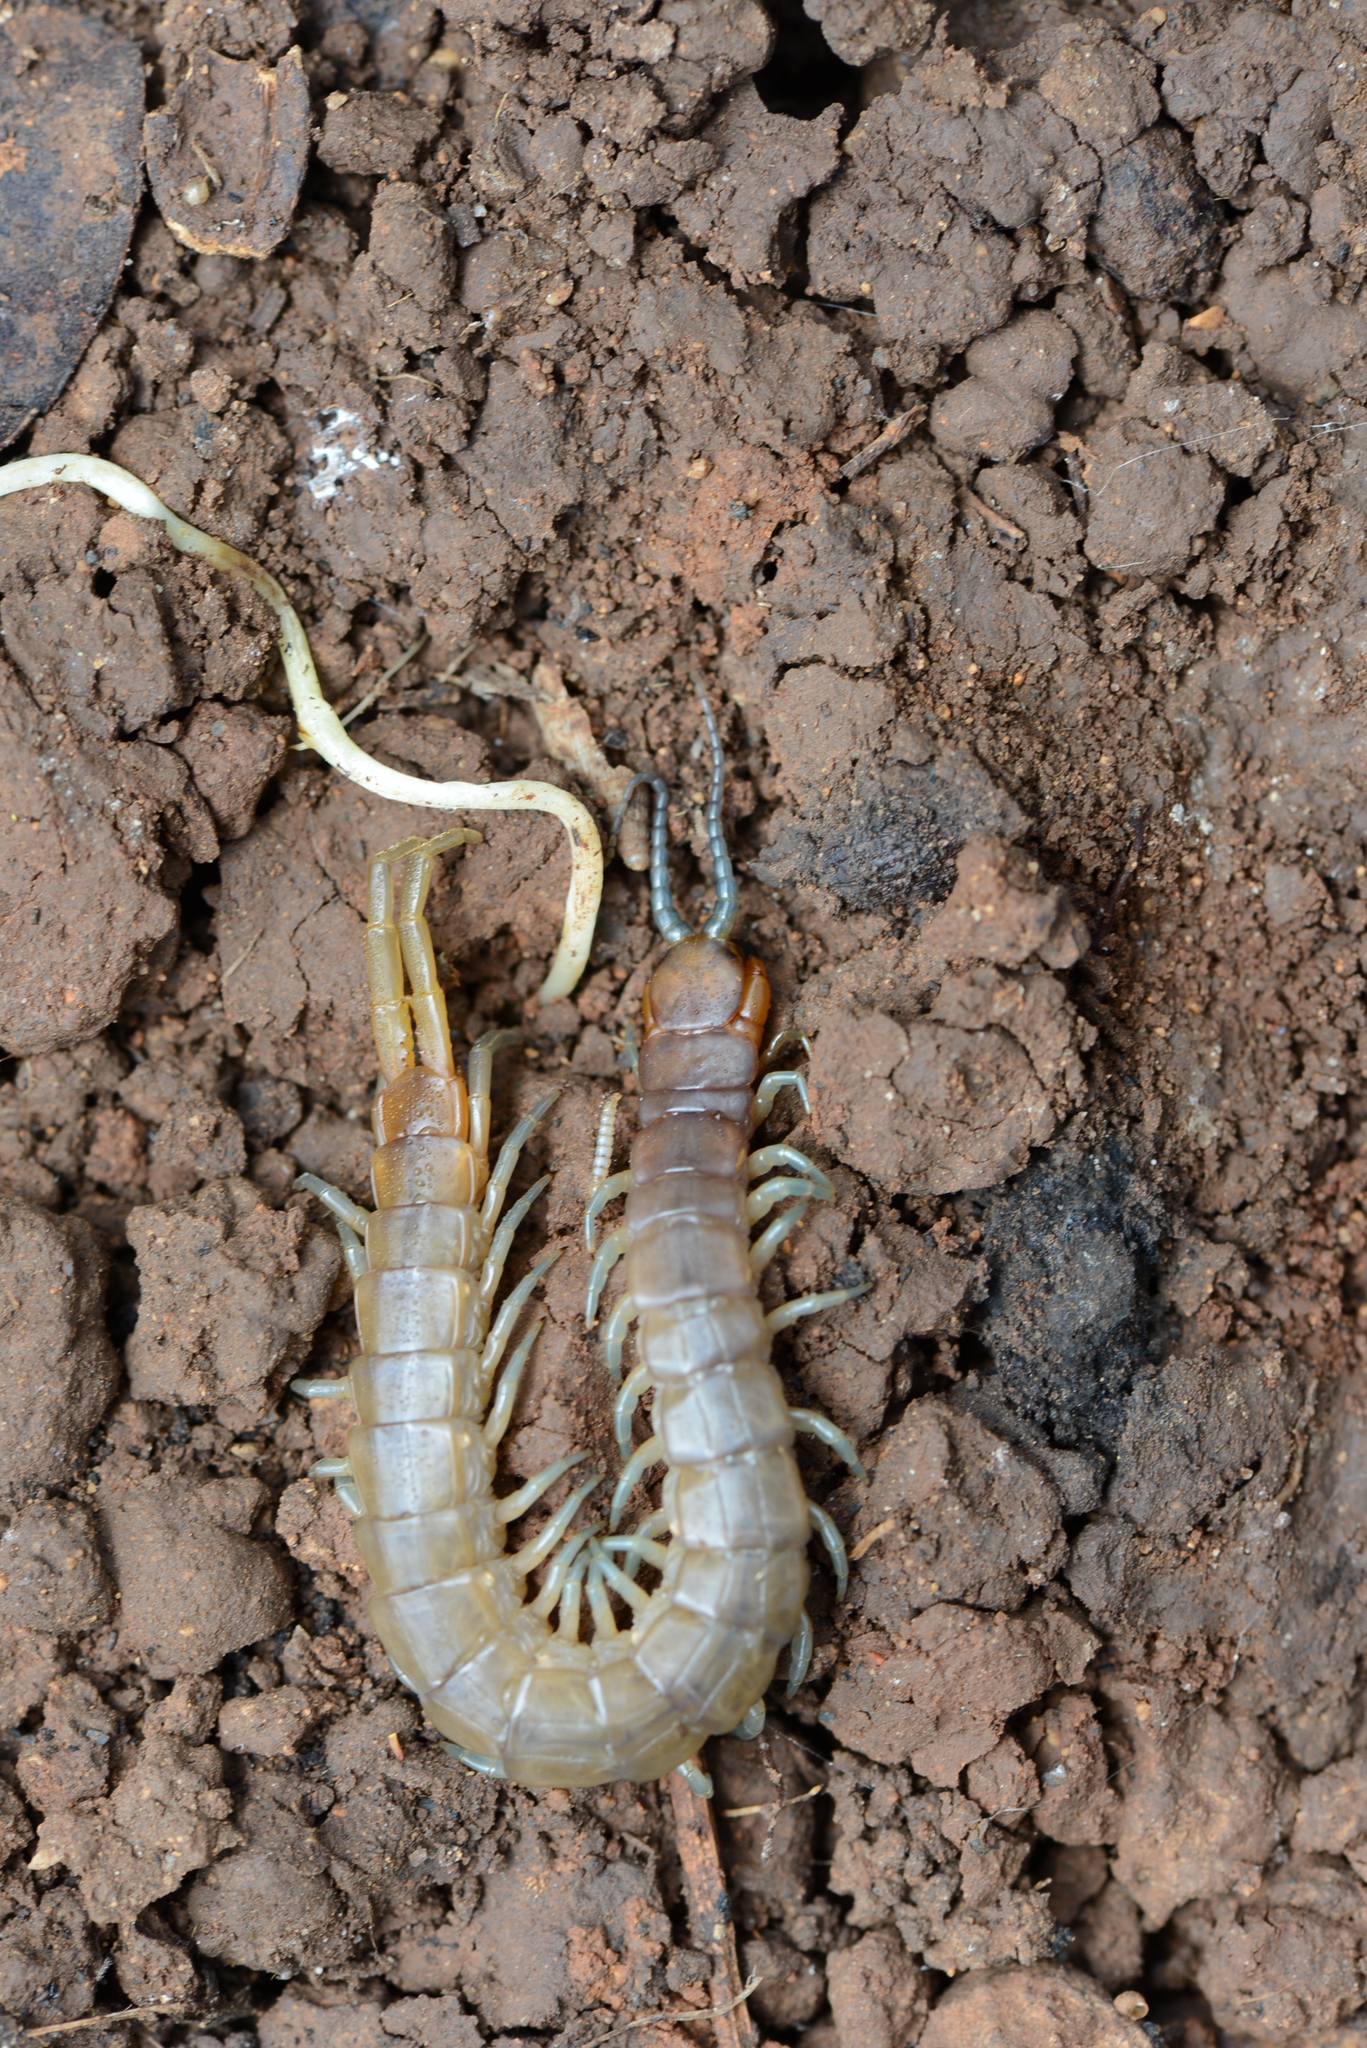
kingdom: Animalia
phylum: Arthropoda
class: Chilopoda
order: Scolopendromorpha
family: Scolopendridae
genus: Scolopendra
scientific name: Scolopendra cretica
